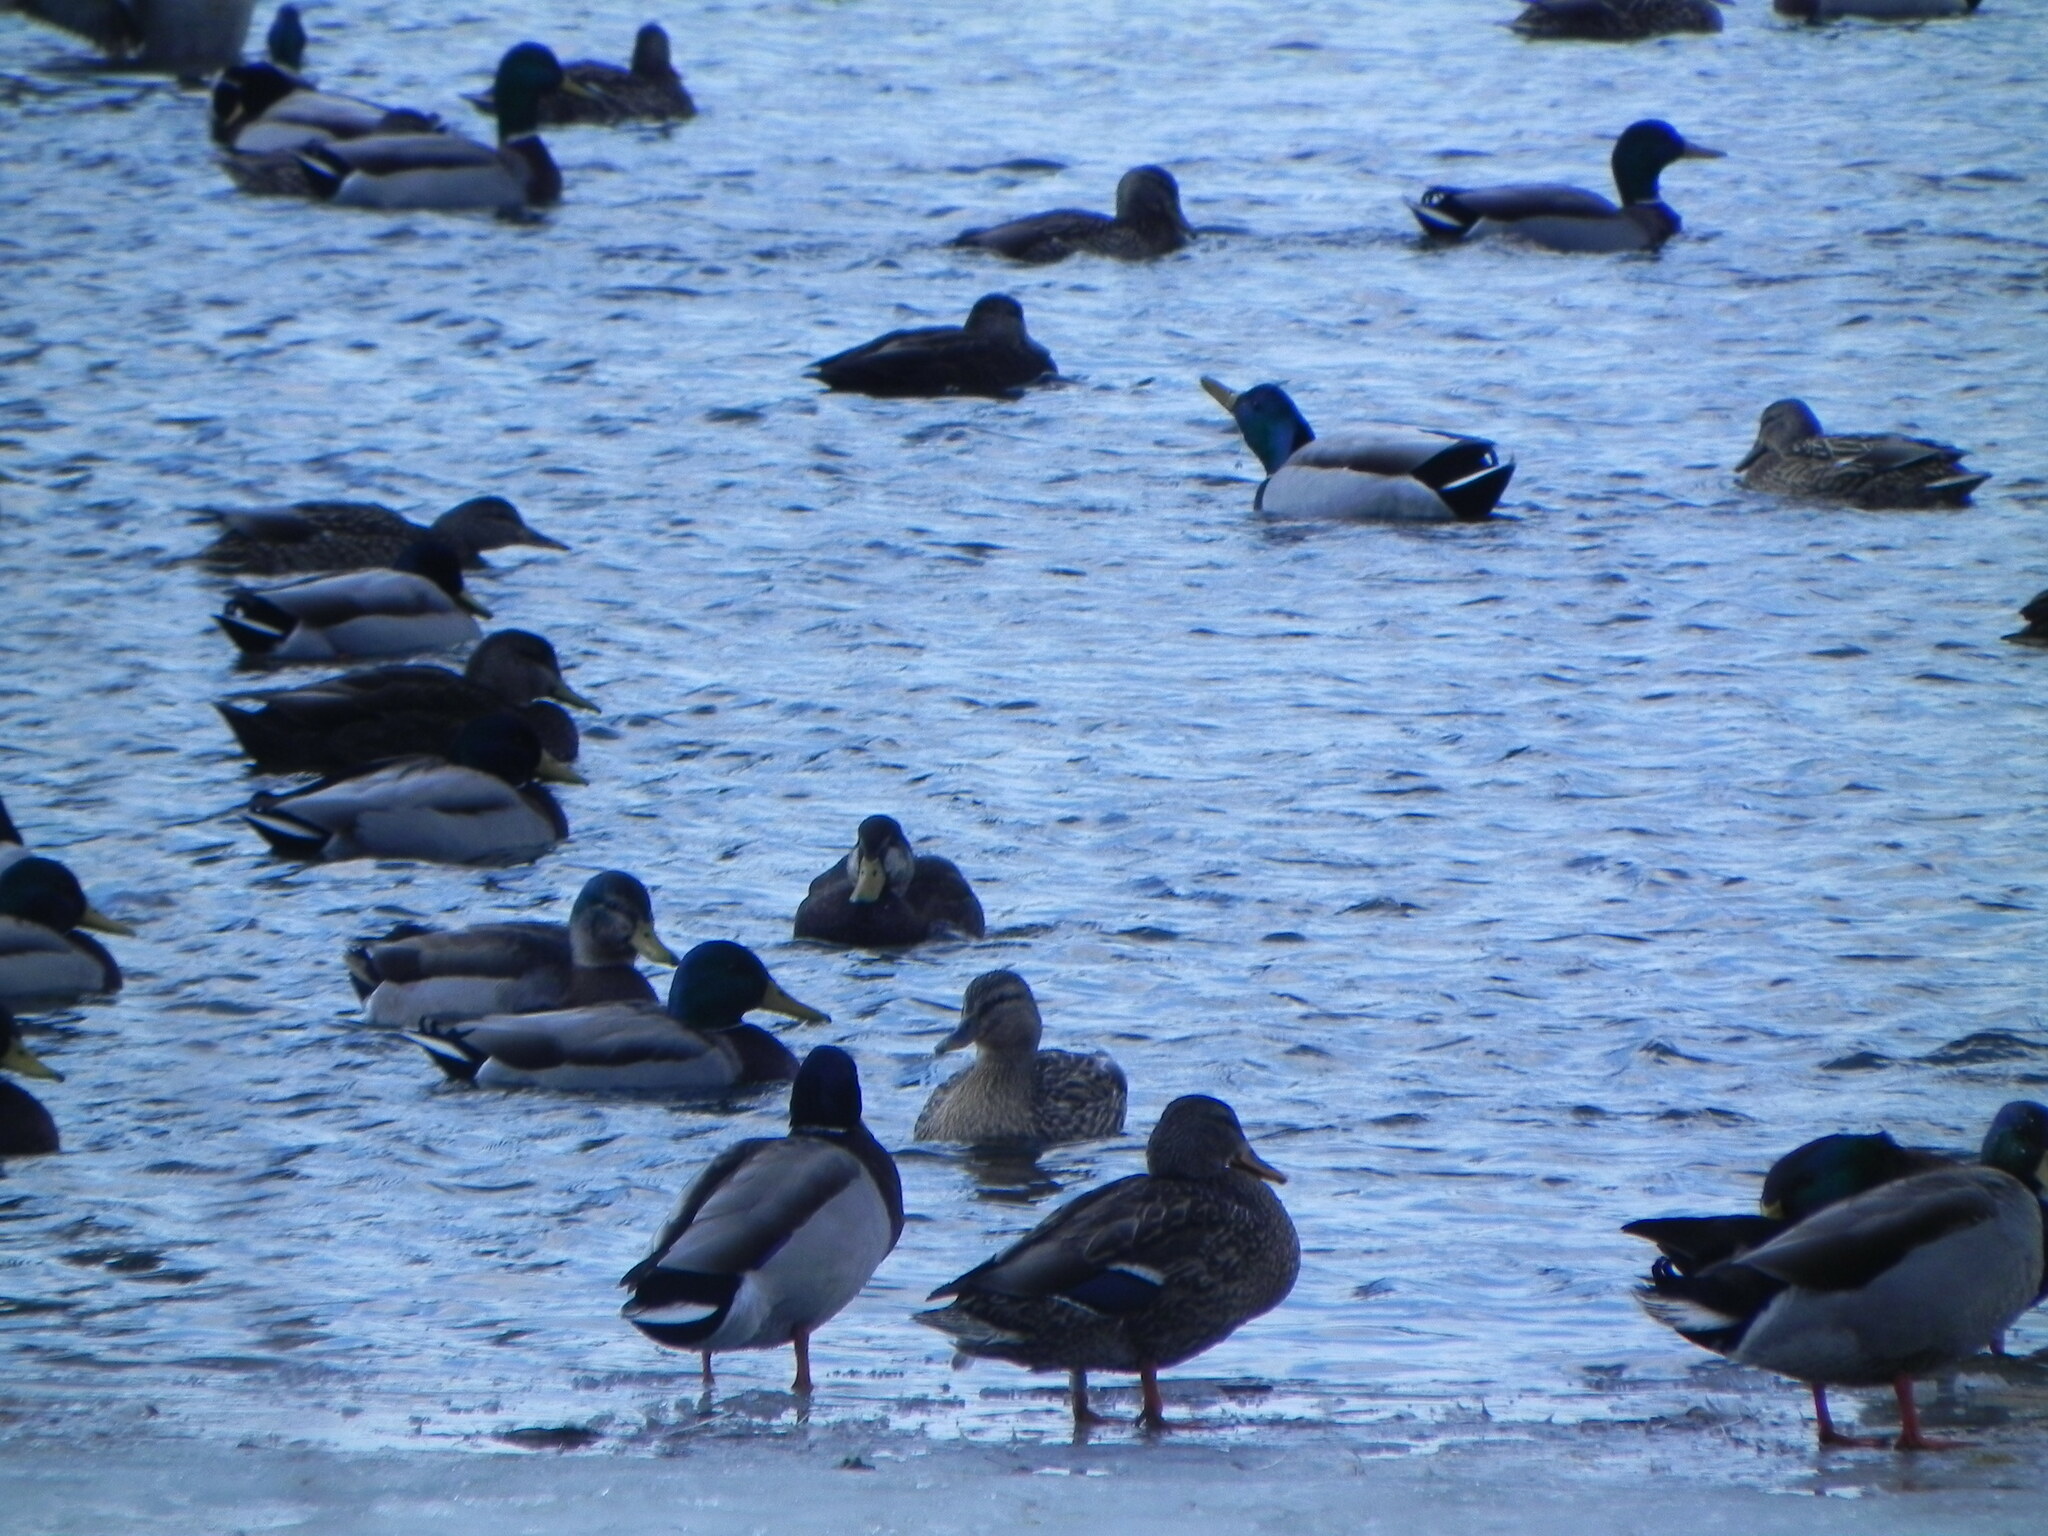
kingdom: Animalia
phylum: Chordata
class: Aves
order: Anseriformes
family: Anatidae
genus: Anas
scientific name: Anas platyrhynchos
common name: Mallard
